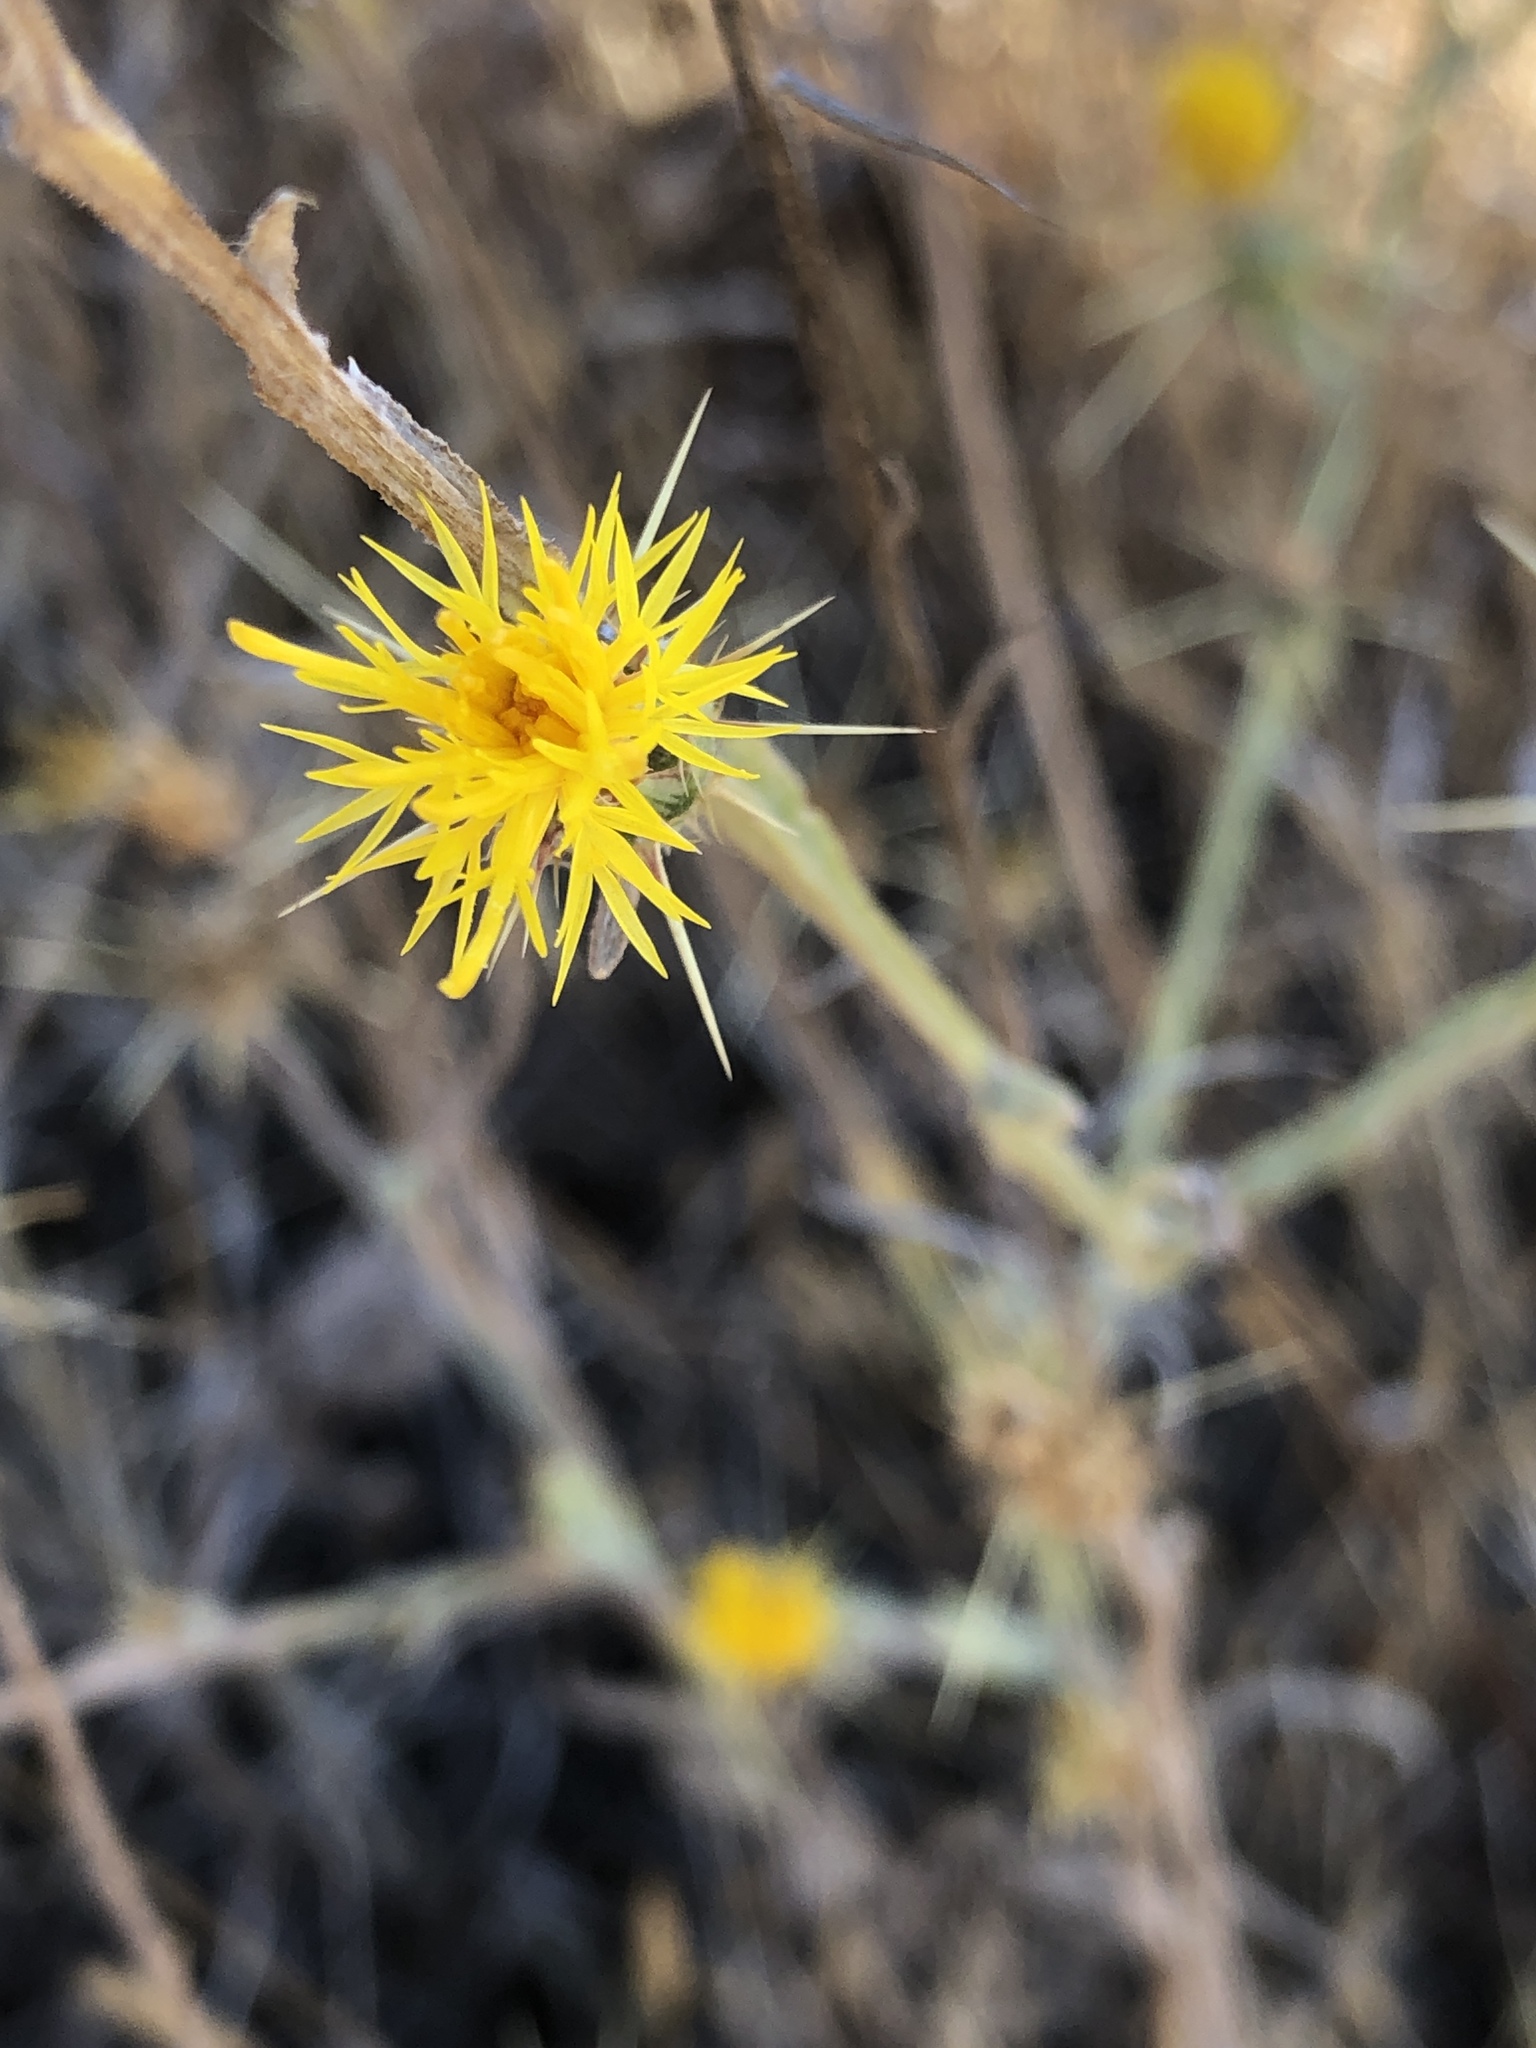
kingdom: Plantae
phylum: Tracheophyta
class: Magnoliopsida
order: Asterales
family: Asteraceae
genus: Centaurea
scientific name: Centaurea solstitialis
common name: Yellow star-thistle
